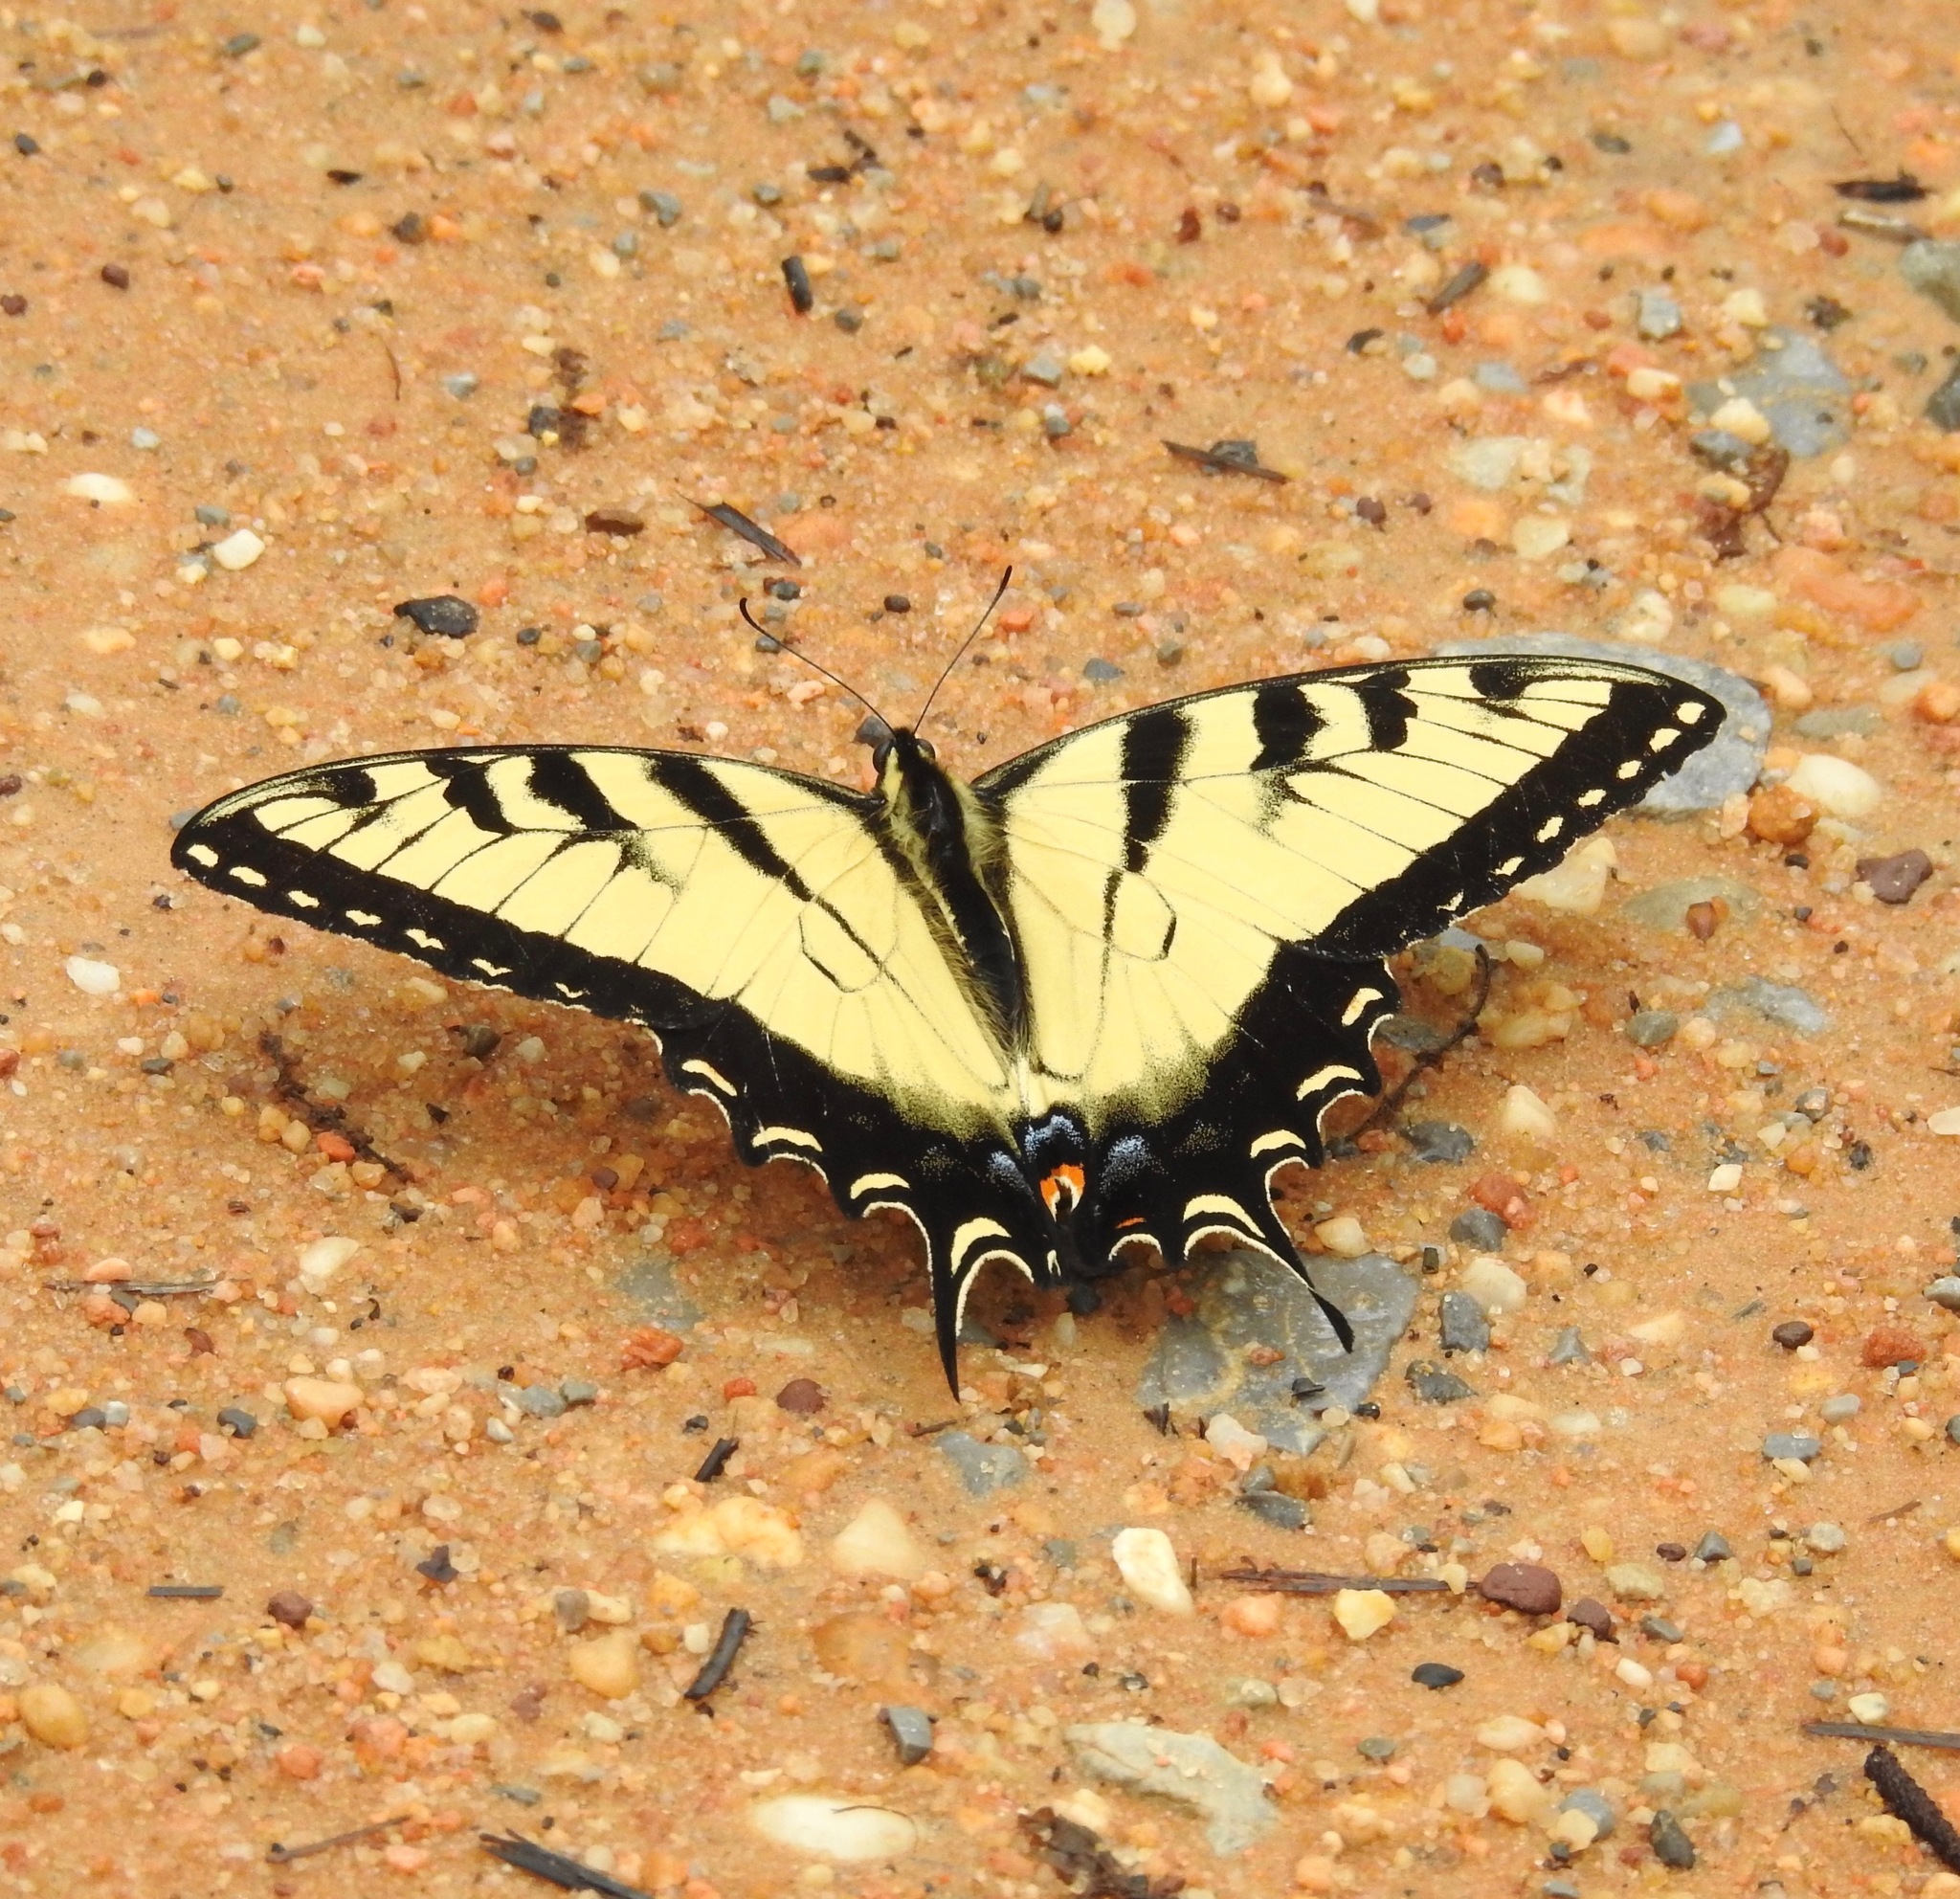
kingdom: Animalia
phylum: Arthropoda
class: Insecta
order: Lepidoptera
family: Papilionidae
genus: Papilio
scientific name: Papilio glaucus
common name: Tiger swallowtail
